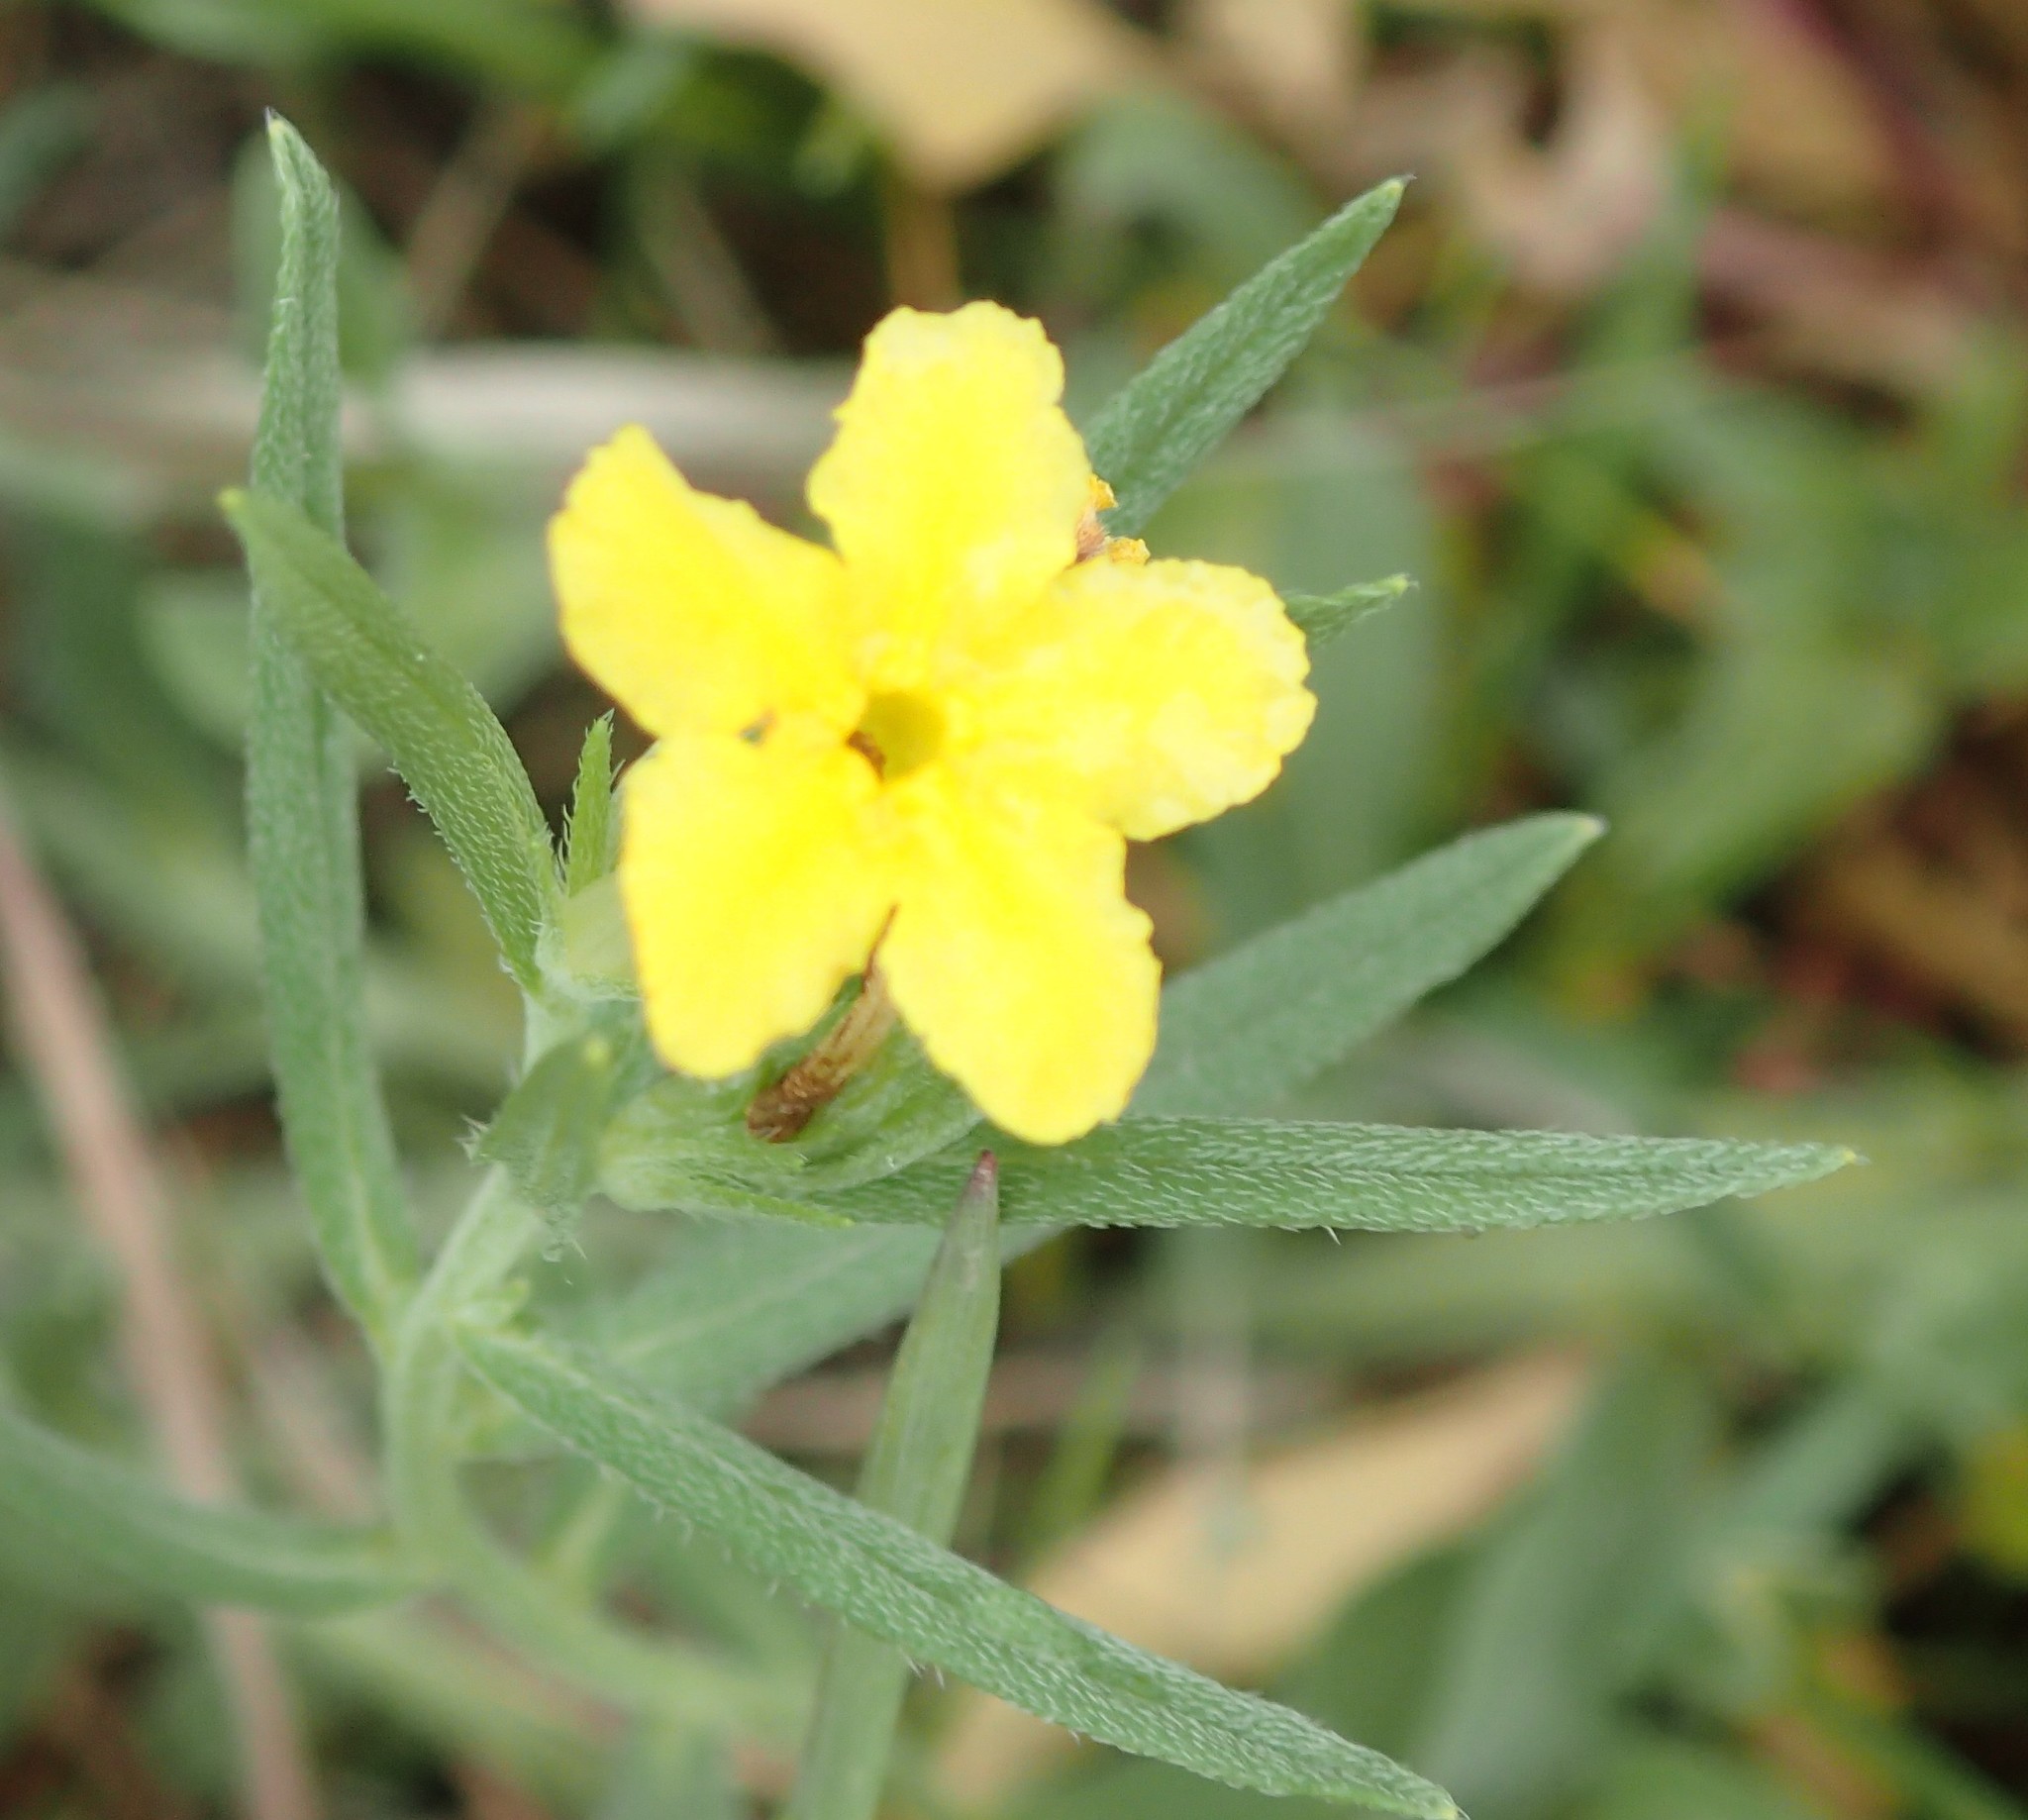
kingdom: Plantae
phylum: Tracheophyta
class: Magnoliopsida
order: Boraginales
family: Boraginaceae
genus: Lithospermum
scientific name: Lithospermum incisum
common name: Fringed gromwell
